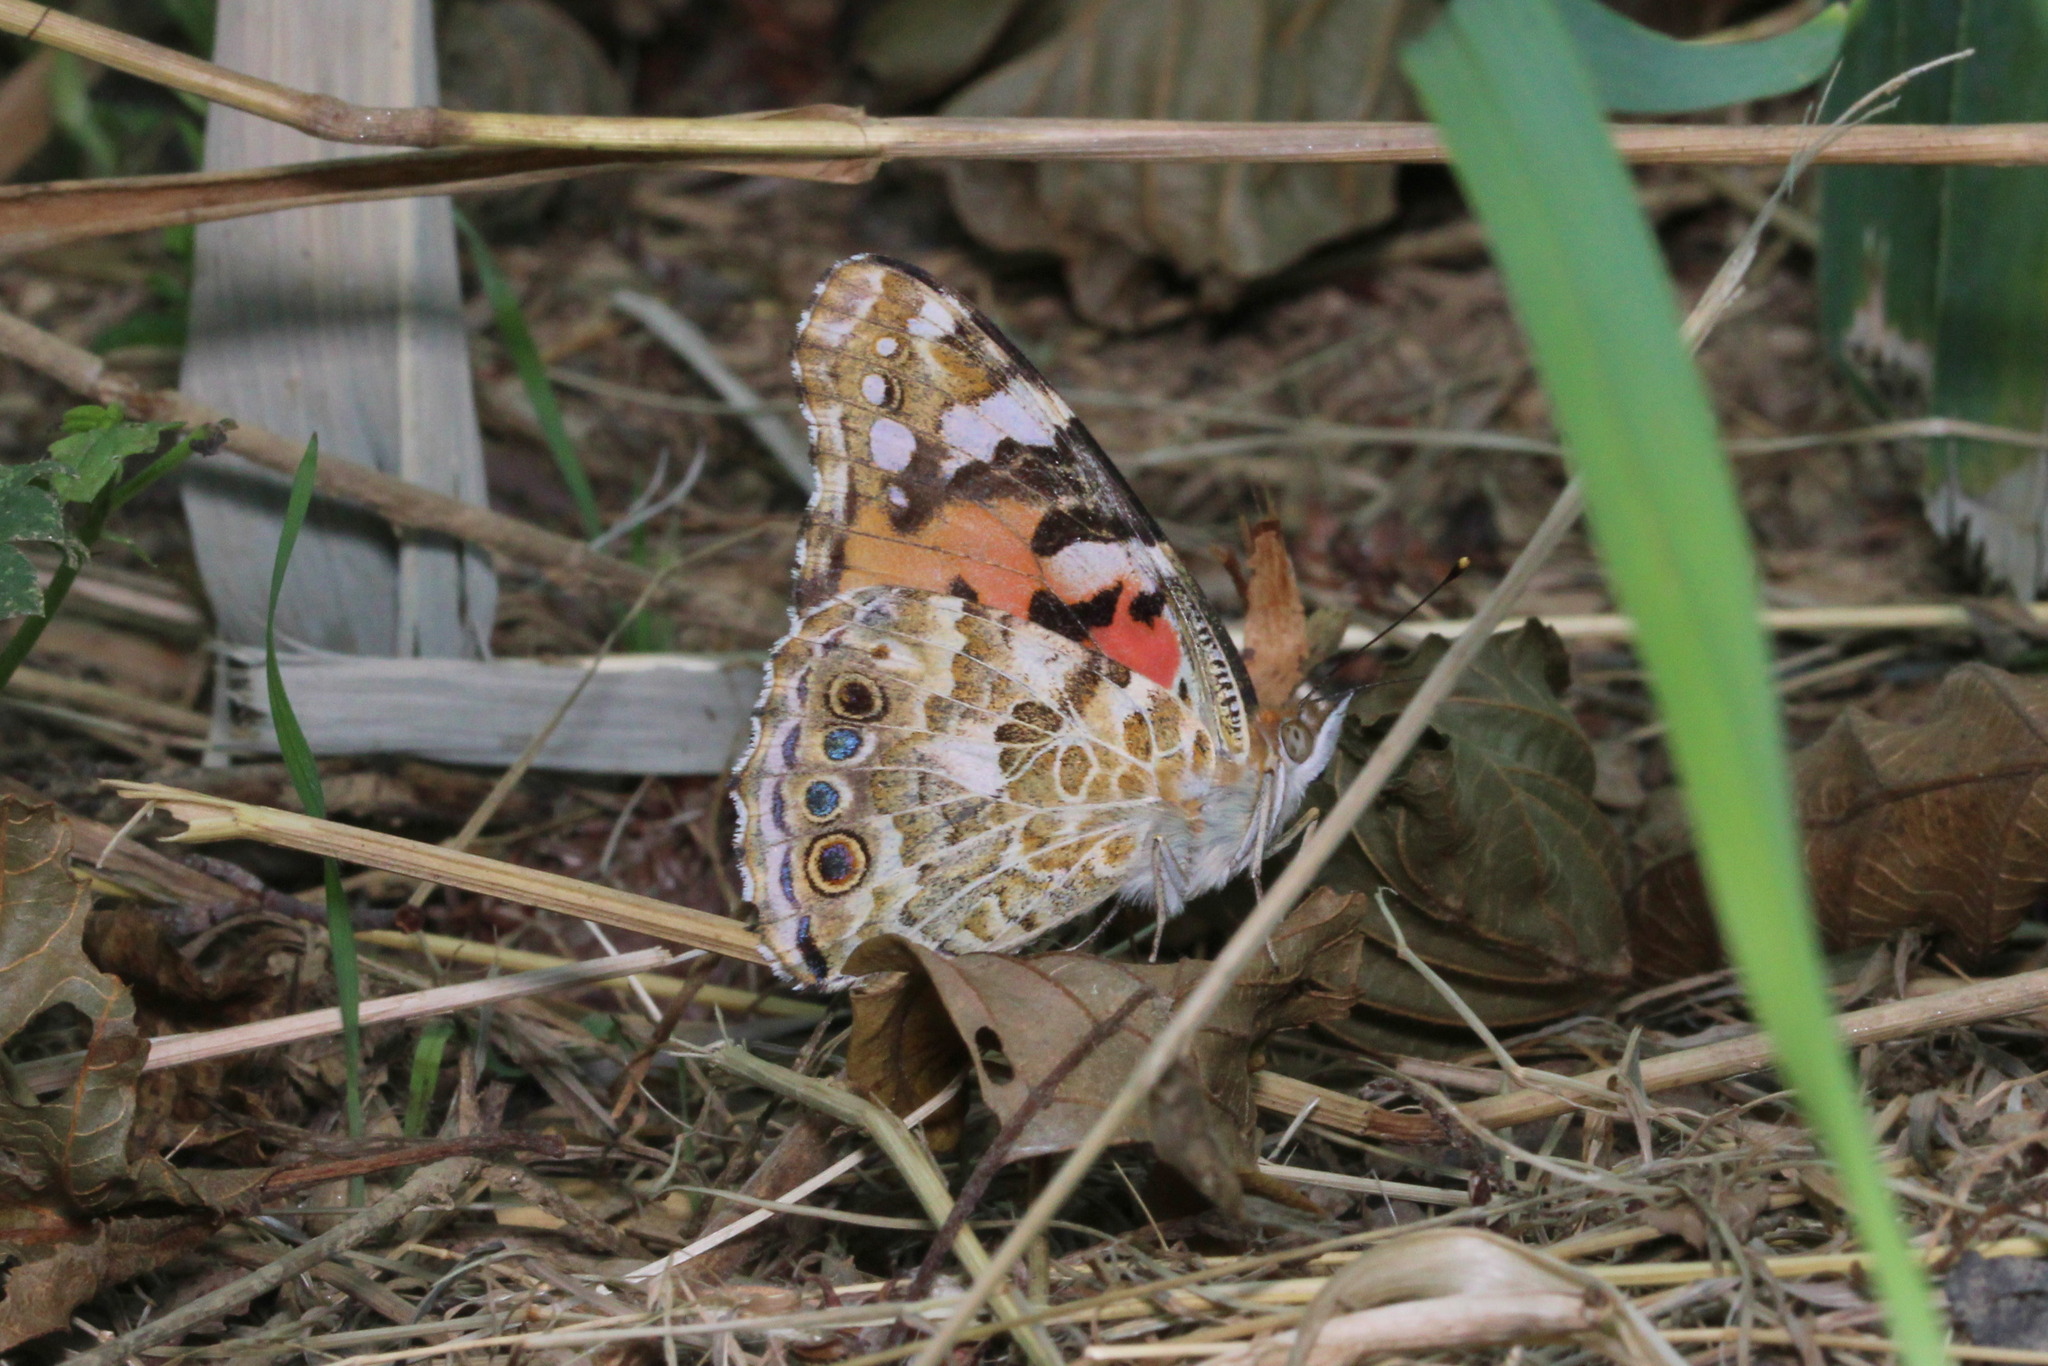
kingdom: Animalia
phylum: Arthropoda
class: Insecta
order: Lepidoptera
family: Nymphalidae
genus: Vanessa
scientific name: Vanessa cardui
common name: Painted lady
